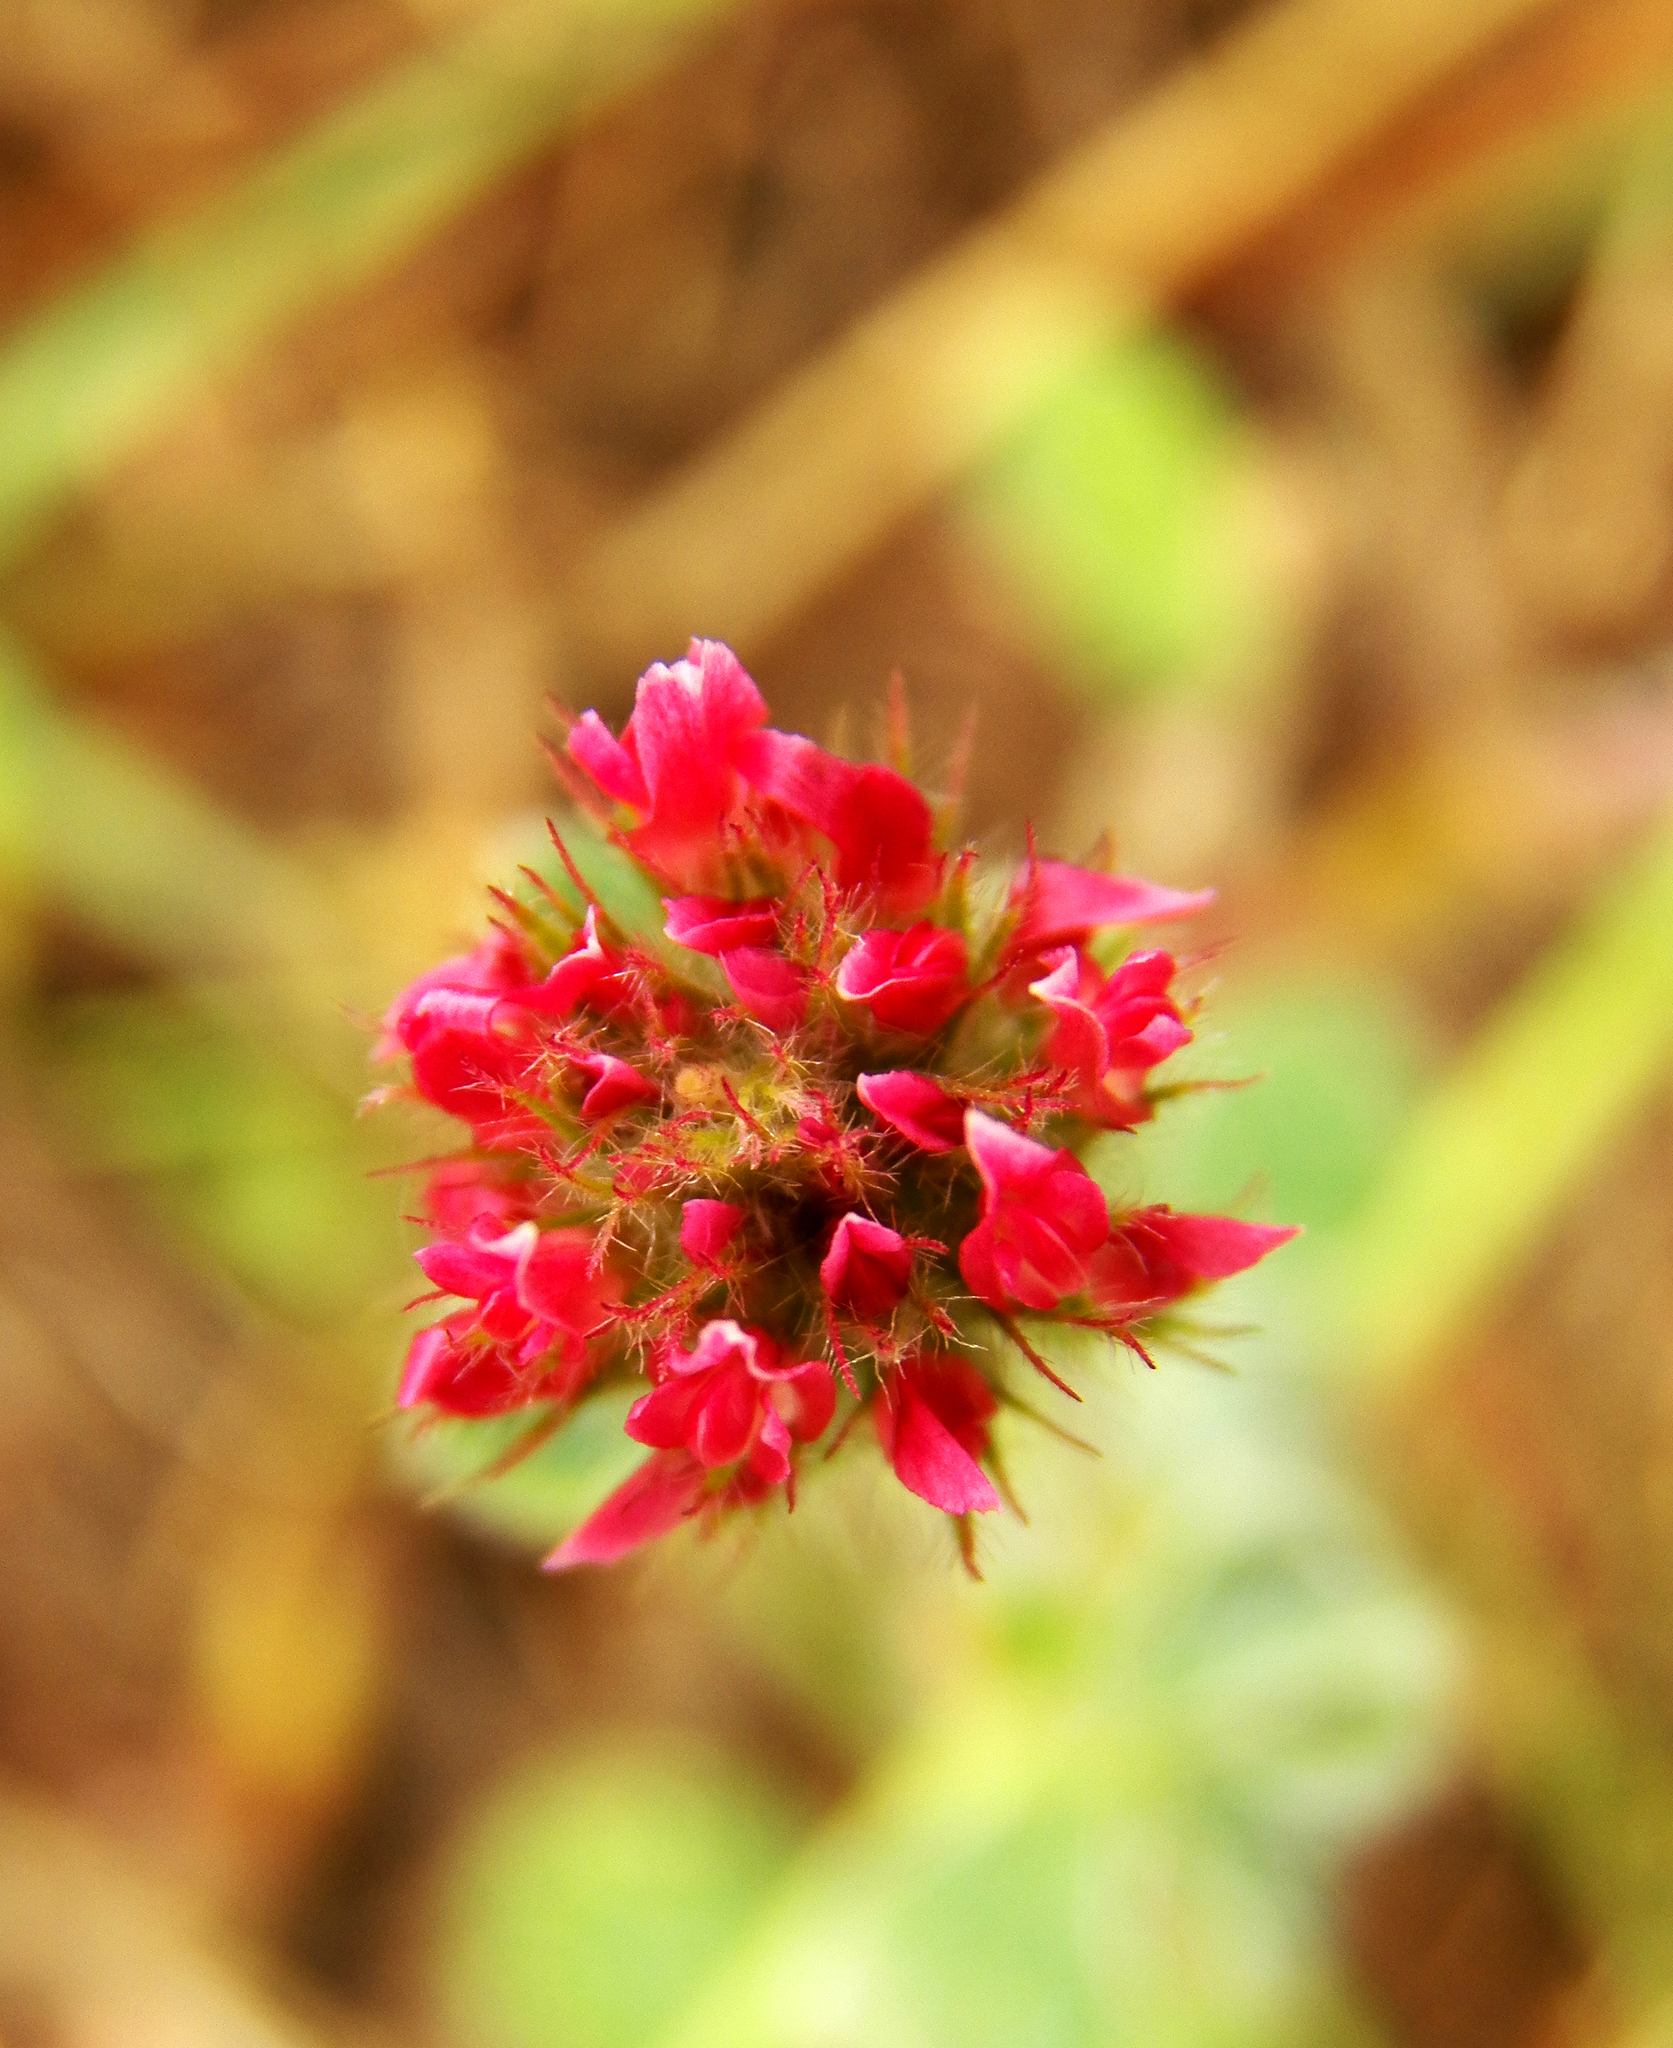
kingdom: Plantae
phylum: Tracheophyta
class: Magnoliopsida
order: Fabales
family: Fabaceae
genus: Trifolium
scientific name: Trifolium incarnatum
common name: Crimson clover
